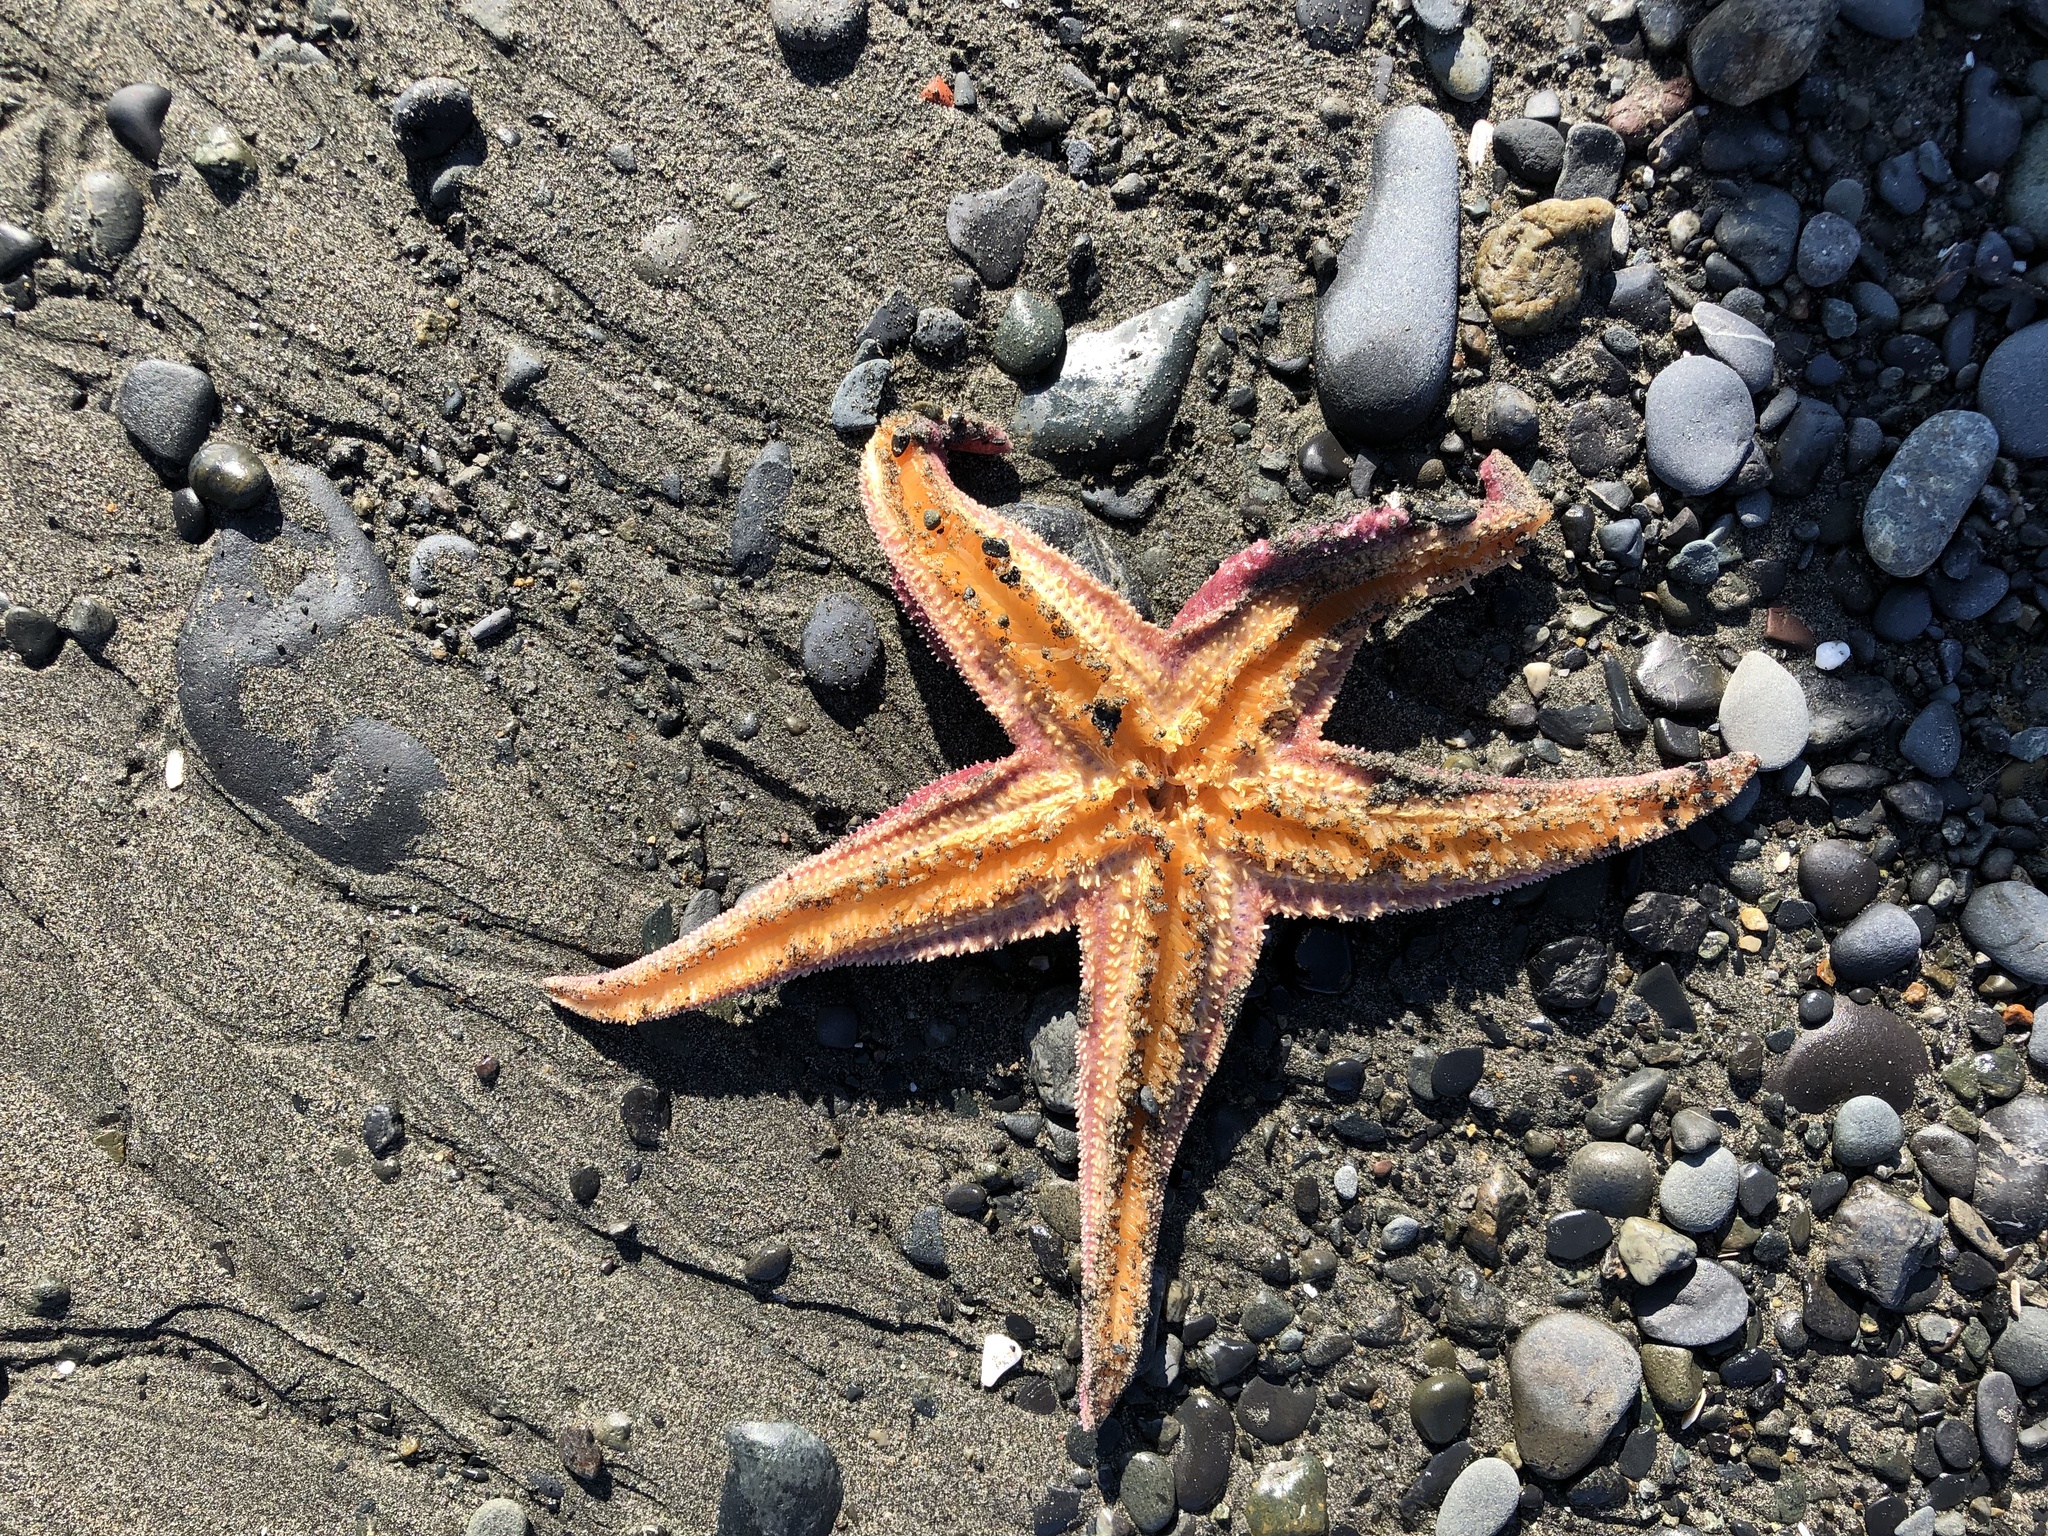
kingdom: Animalia
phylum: Echinodermata
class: Asteroidea
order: Forcipulatida
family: Asteriidae
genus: Asterias
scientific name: Asterias amurensis
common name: Flat-bottomed star
